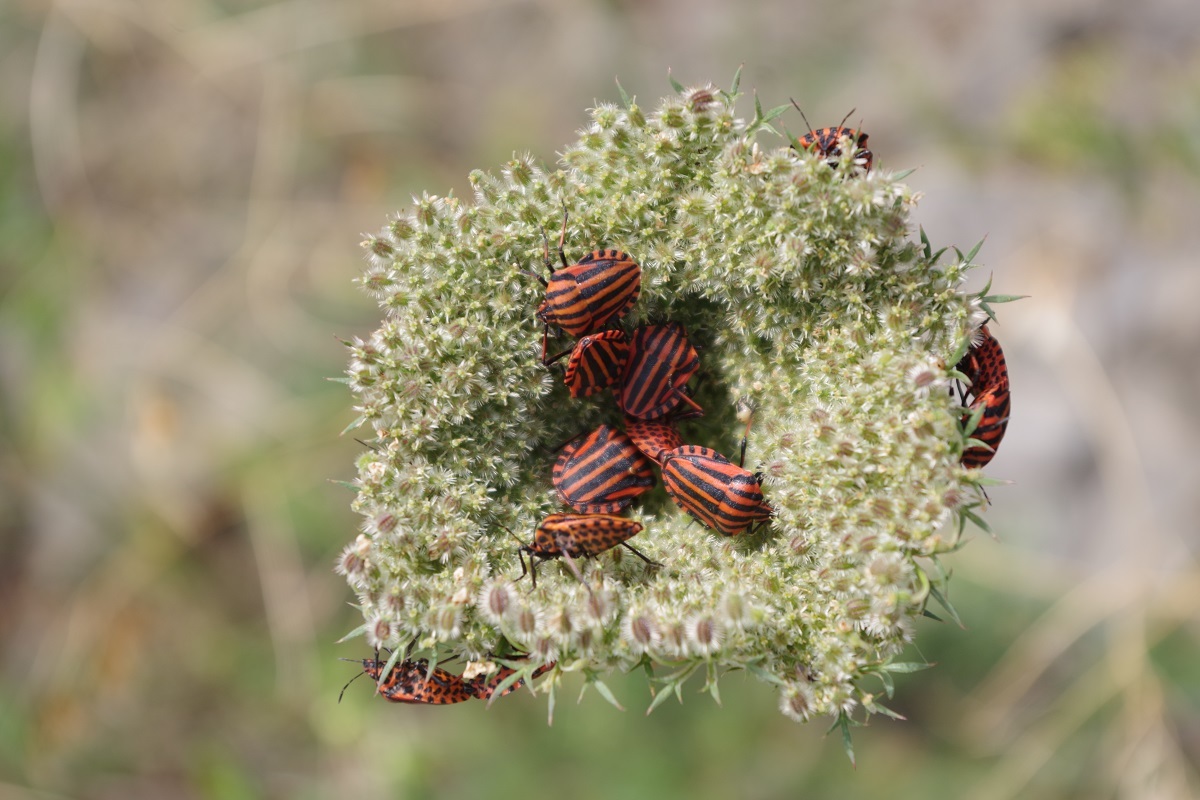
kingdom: Animalia
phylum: Arthropoda
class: Insecta
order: Hemiptera
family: Pentatomidae
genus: Graphosoma
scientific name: Graphosoma italicum
